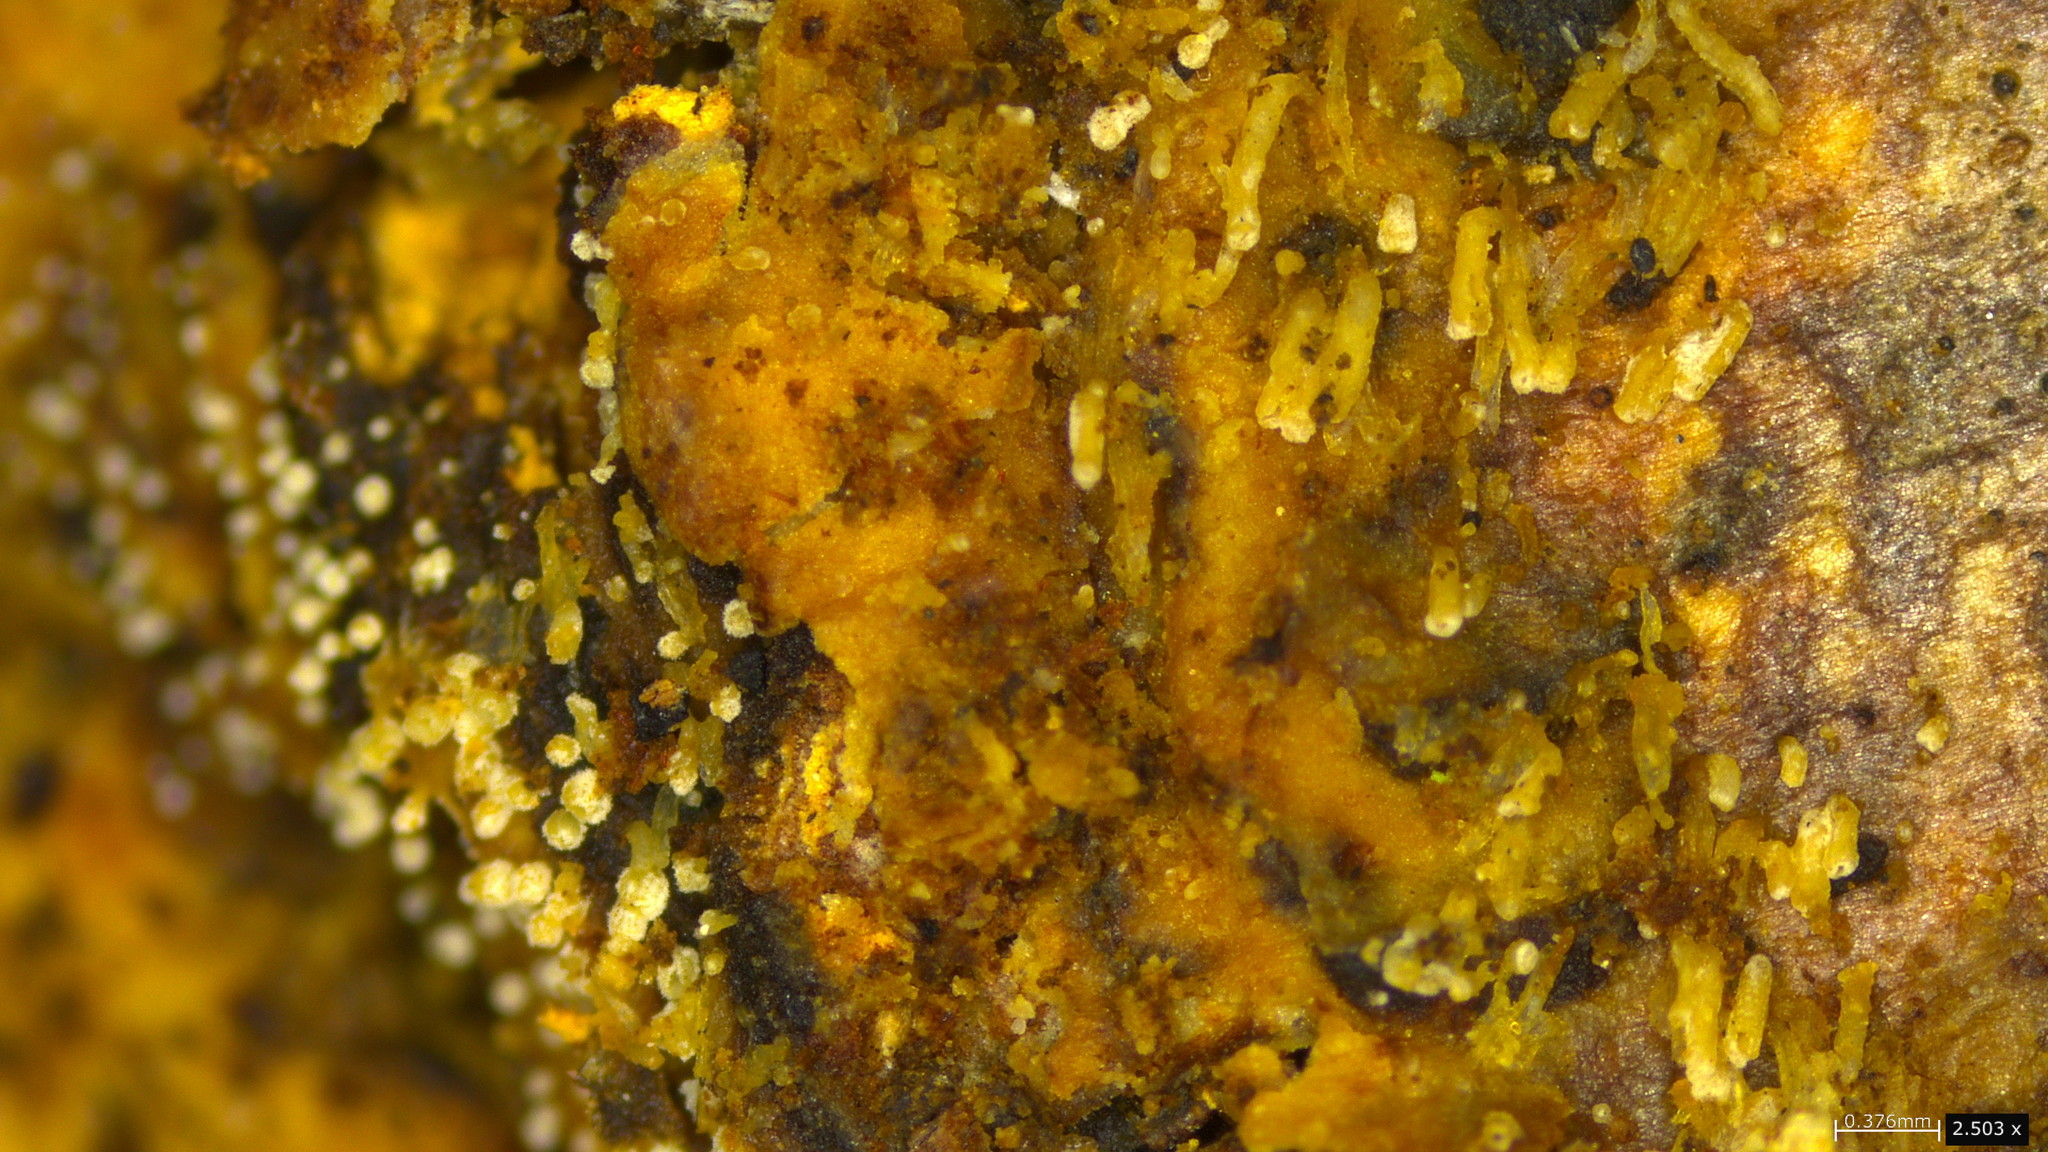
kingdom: Fungi
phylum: Basidiomycota
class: Agaricomycetes
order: Agaricales
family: Marasmiaceae
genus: Henningsomyces
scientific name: Henningsomyces candidus
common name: White tubelet
